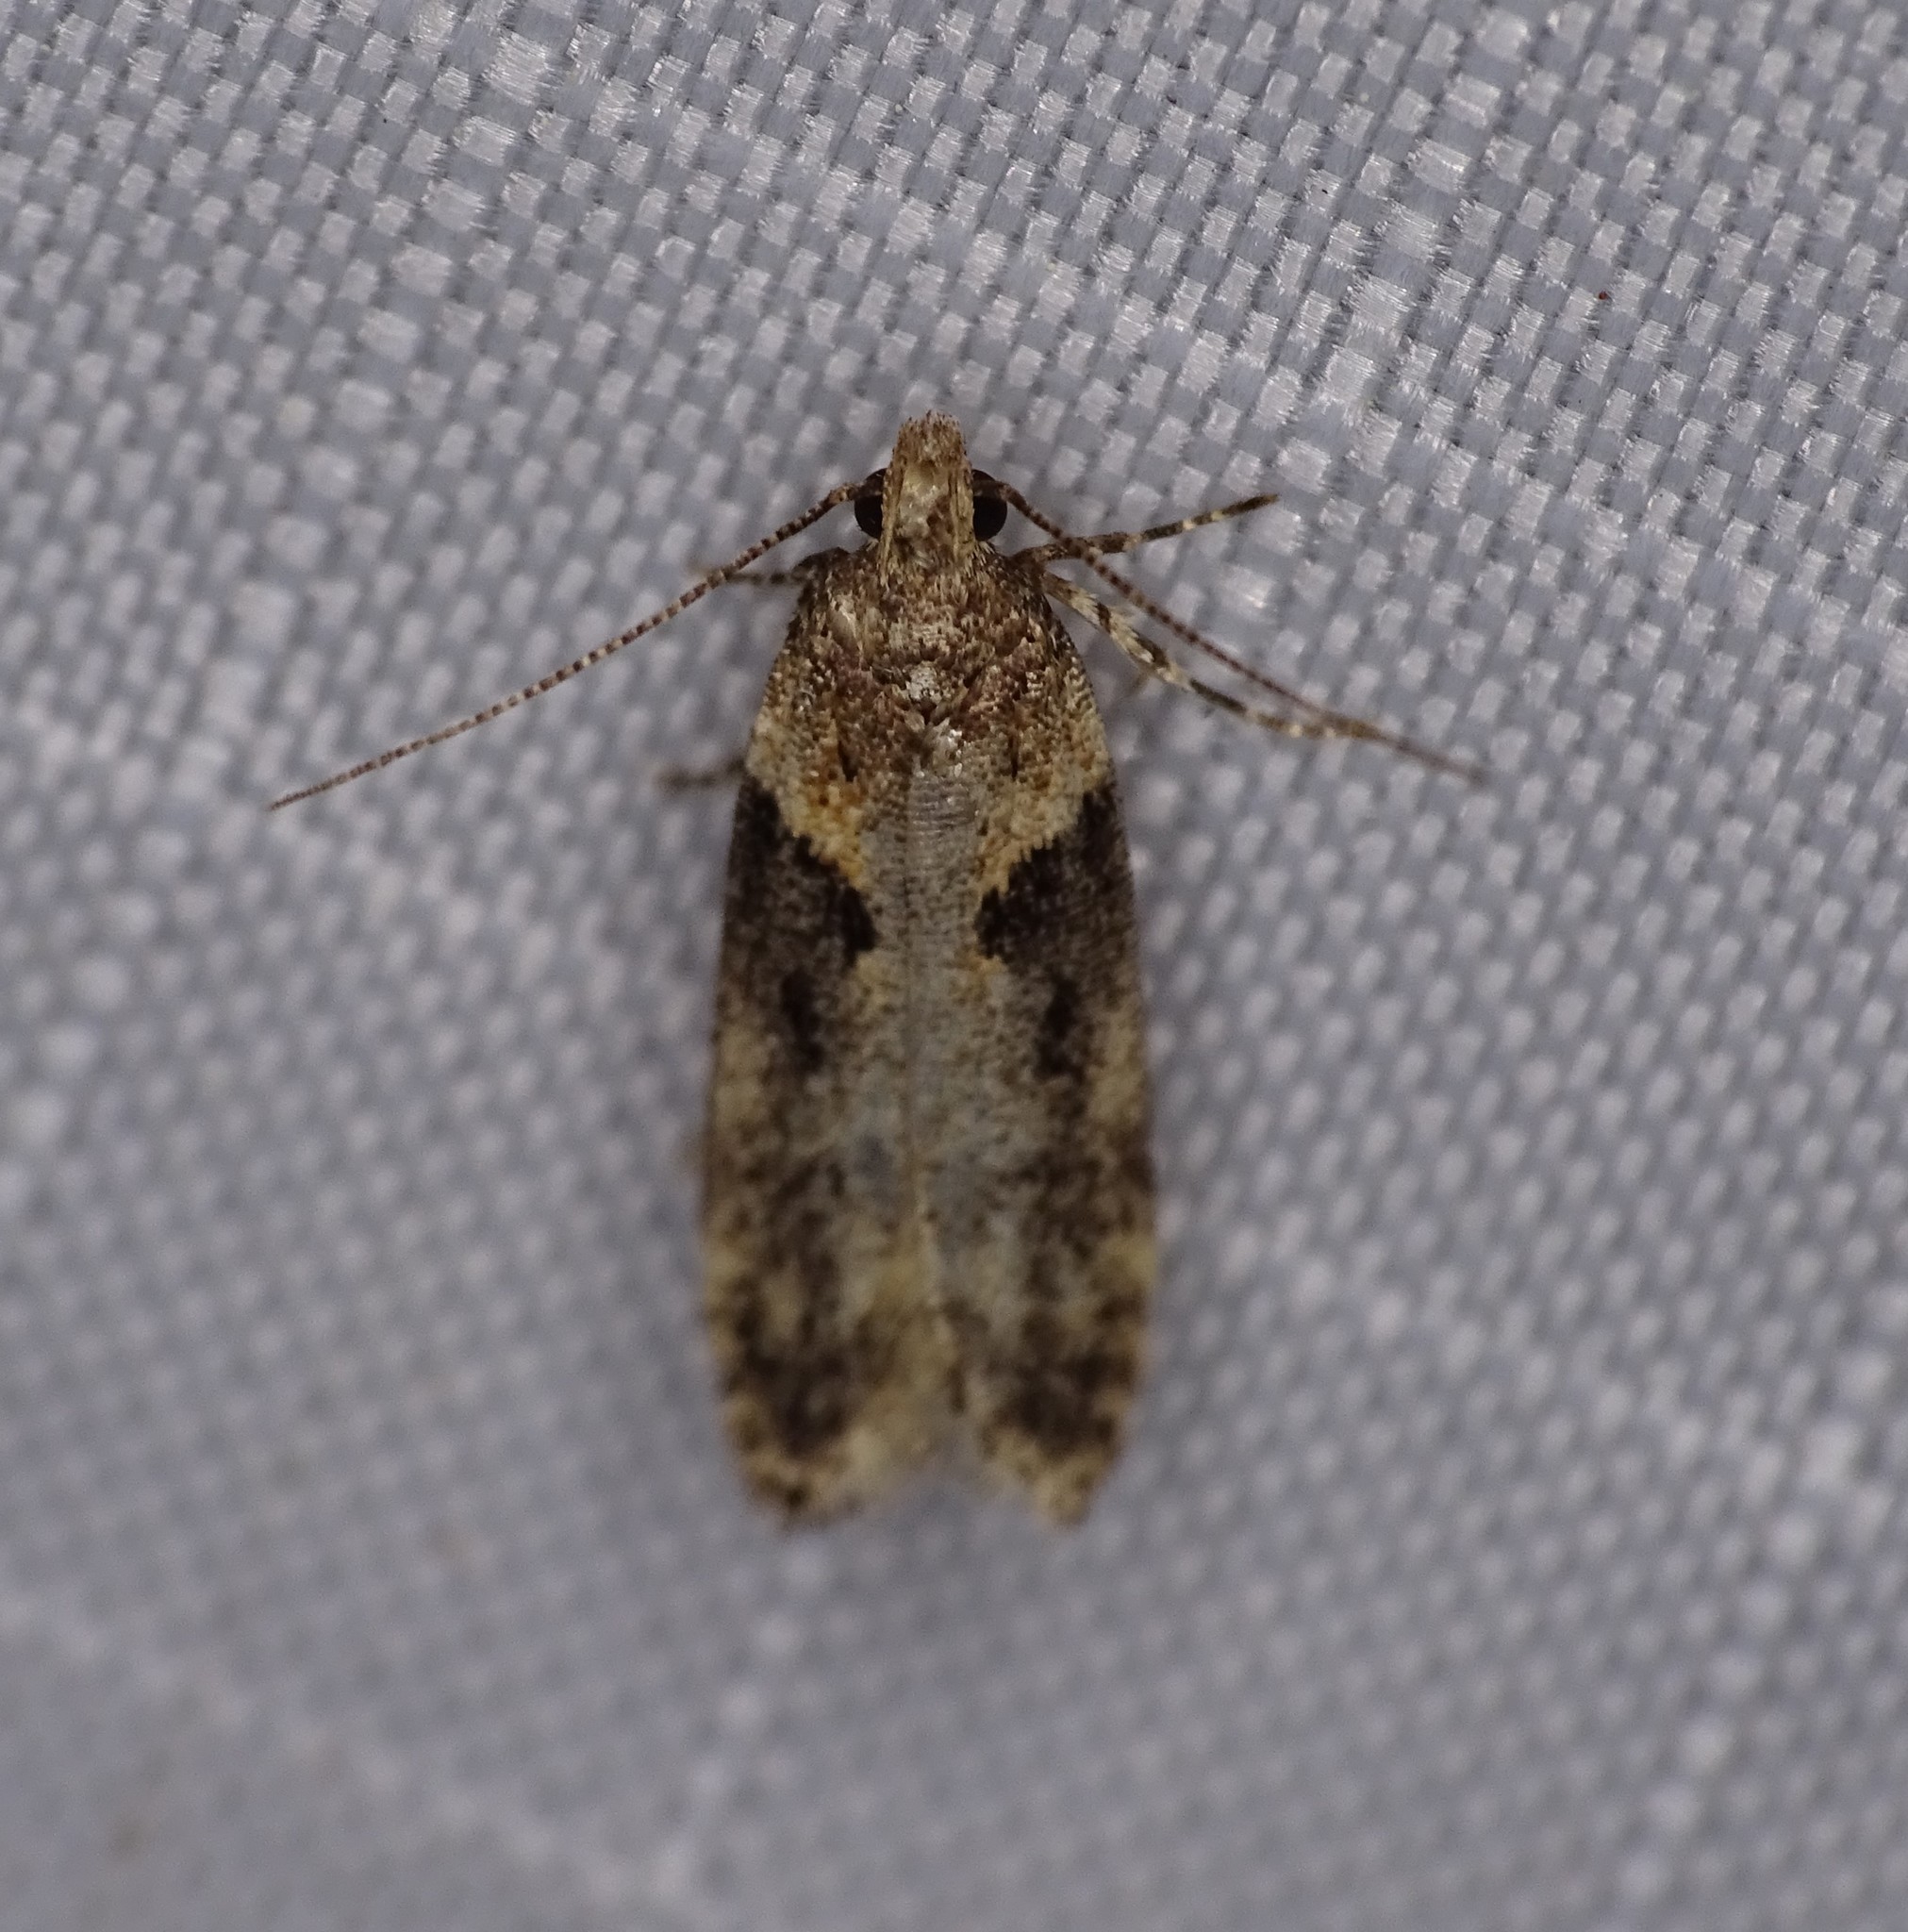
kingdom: Animalia
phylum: Arthropoda
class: Insecta
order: Lepidoptera
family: Gelechiidae
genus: Chionodes
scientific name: Chionodes mediofuscella
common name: Black-smudged chionodes moth
